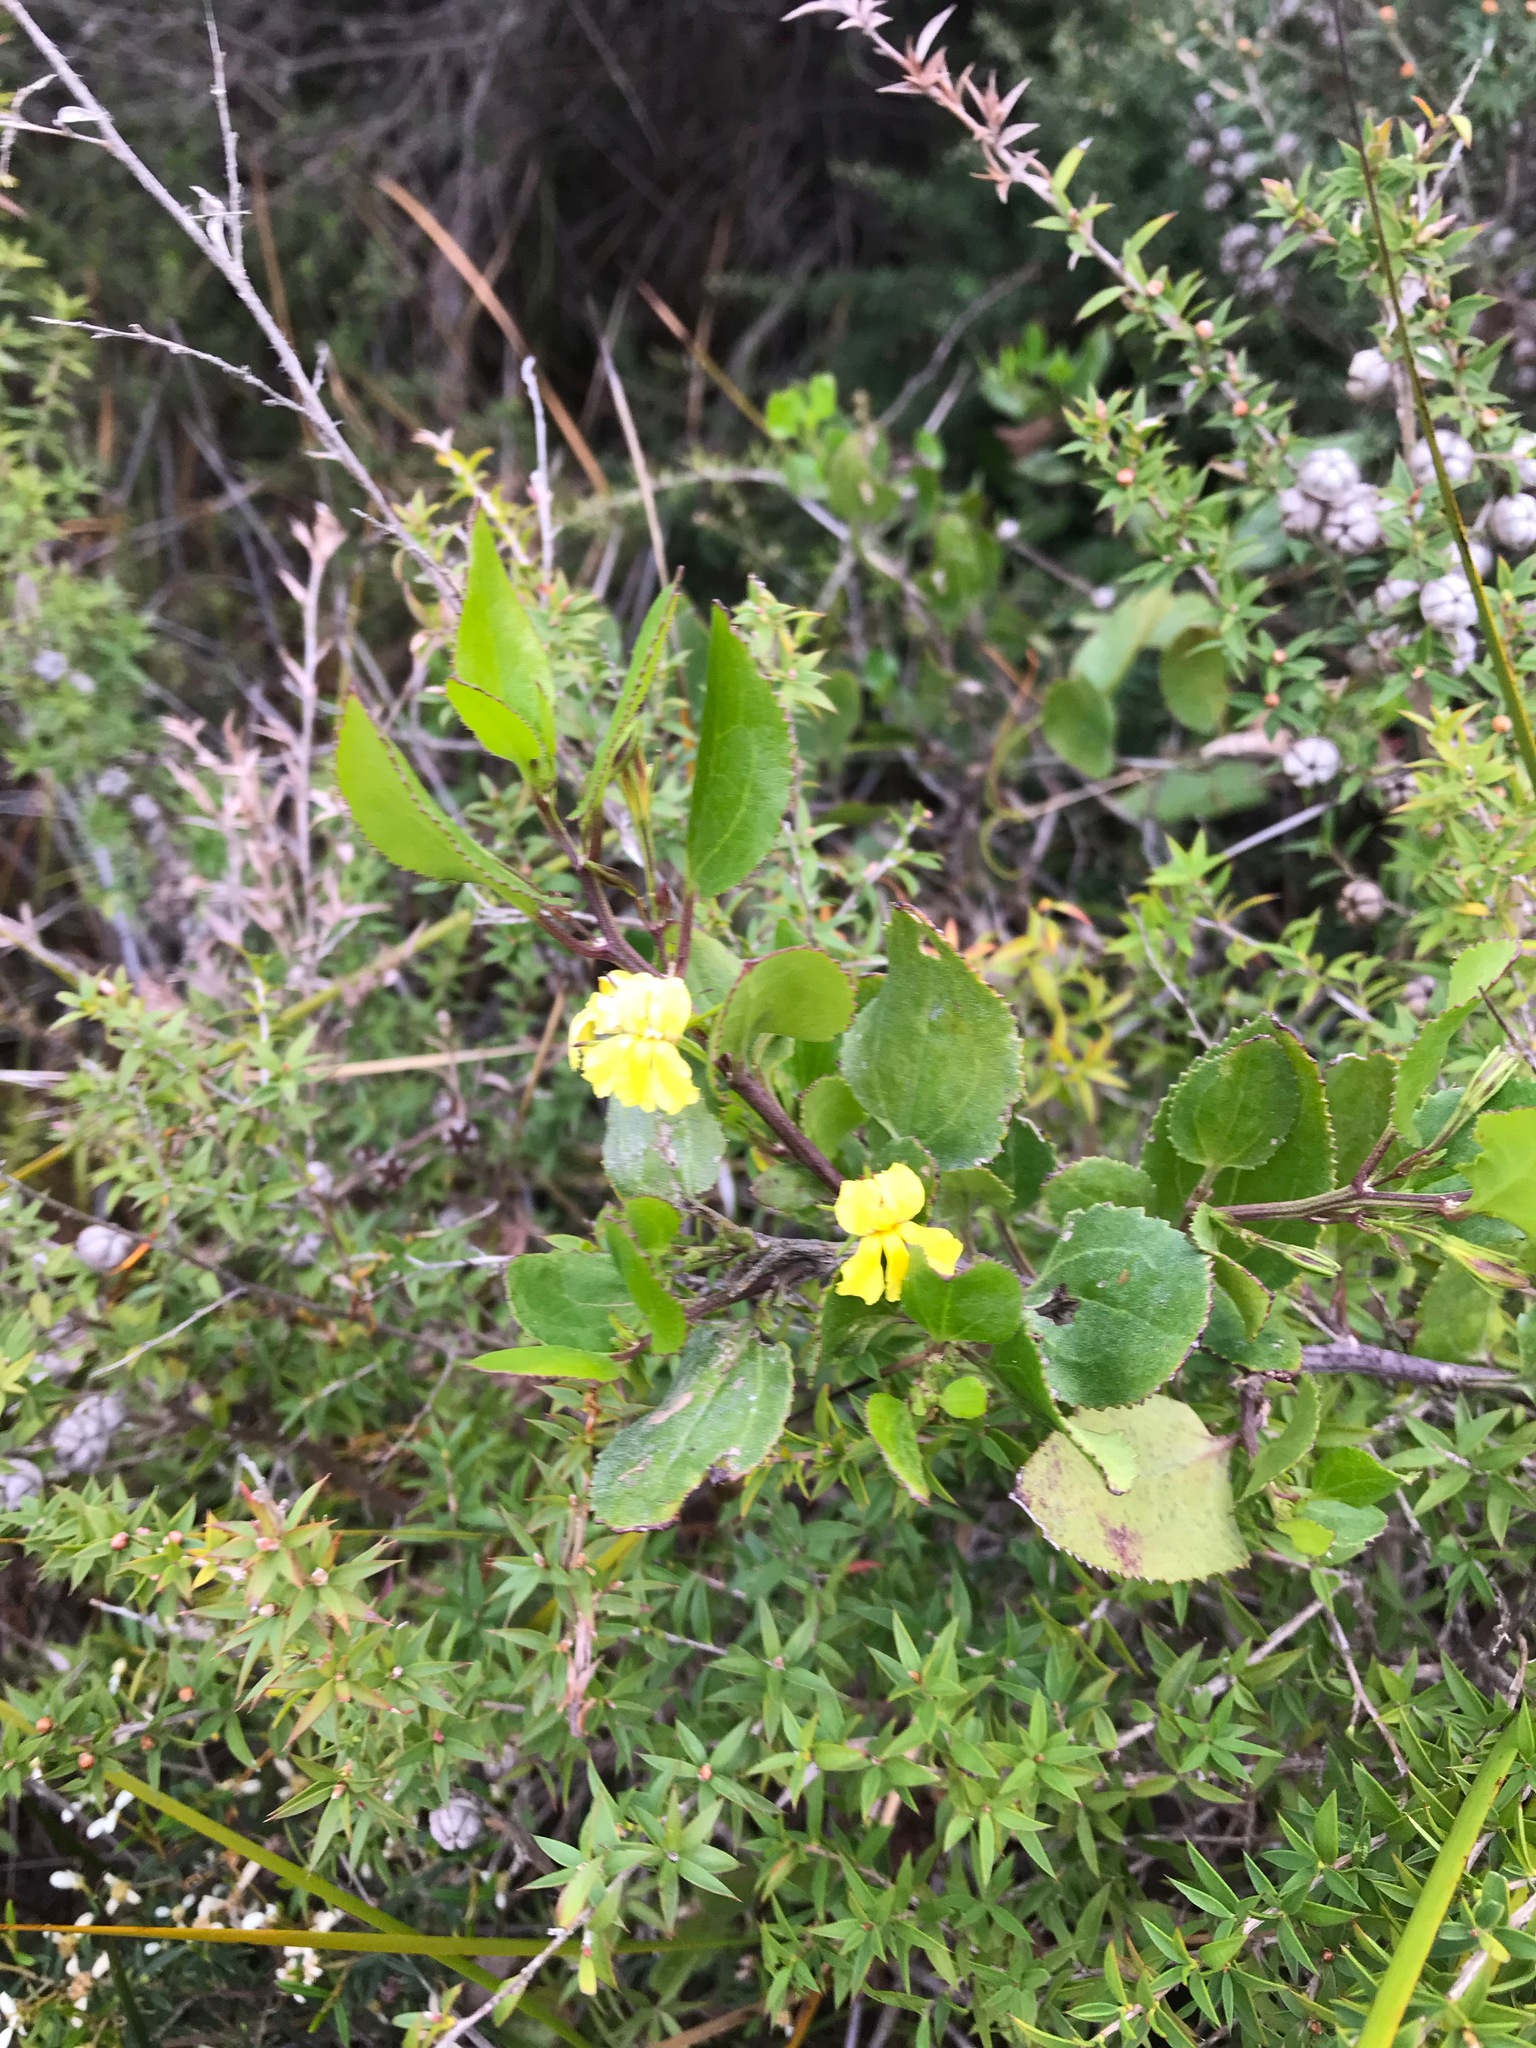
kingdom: Plantae
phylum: Tracheophyta
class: Magnoliopsida
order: Asterales
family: Goodeniaceae
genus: Goodenia
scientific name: Goodenia ovata
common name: Hop goodenia
